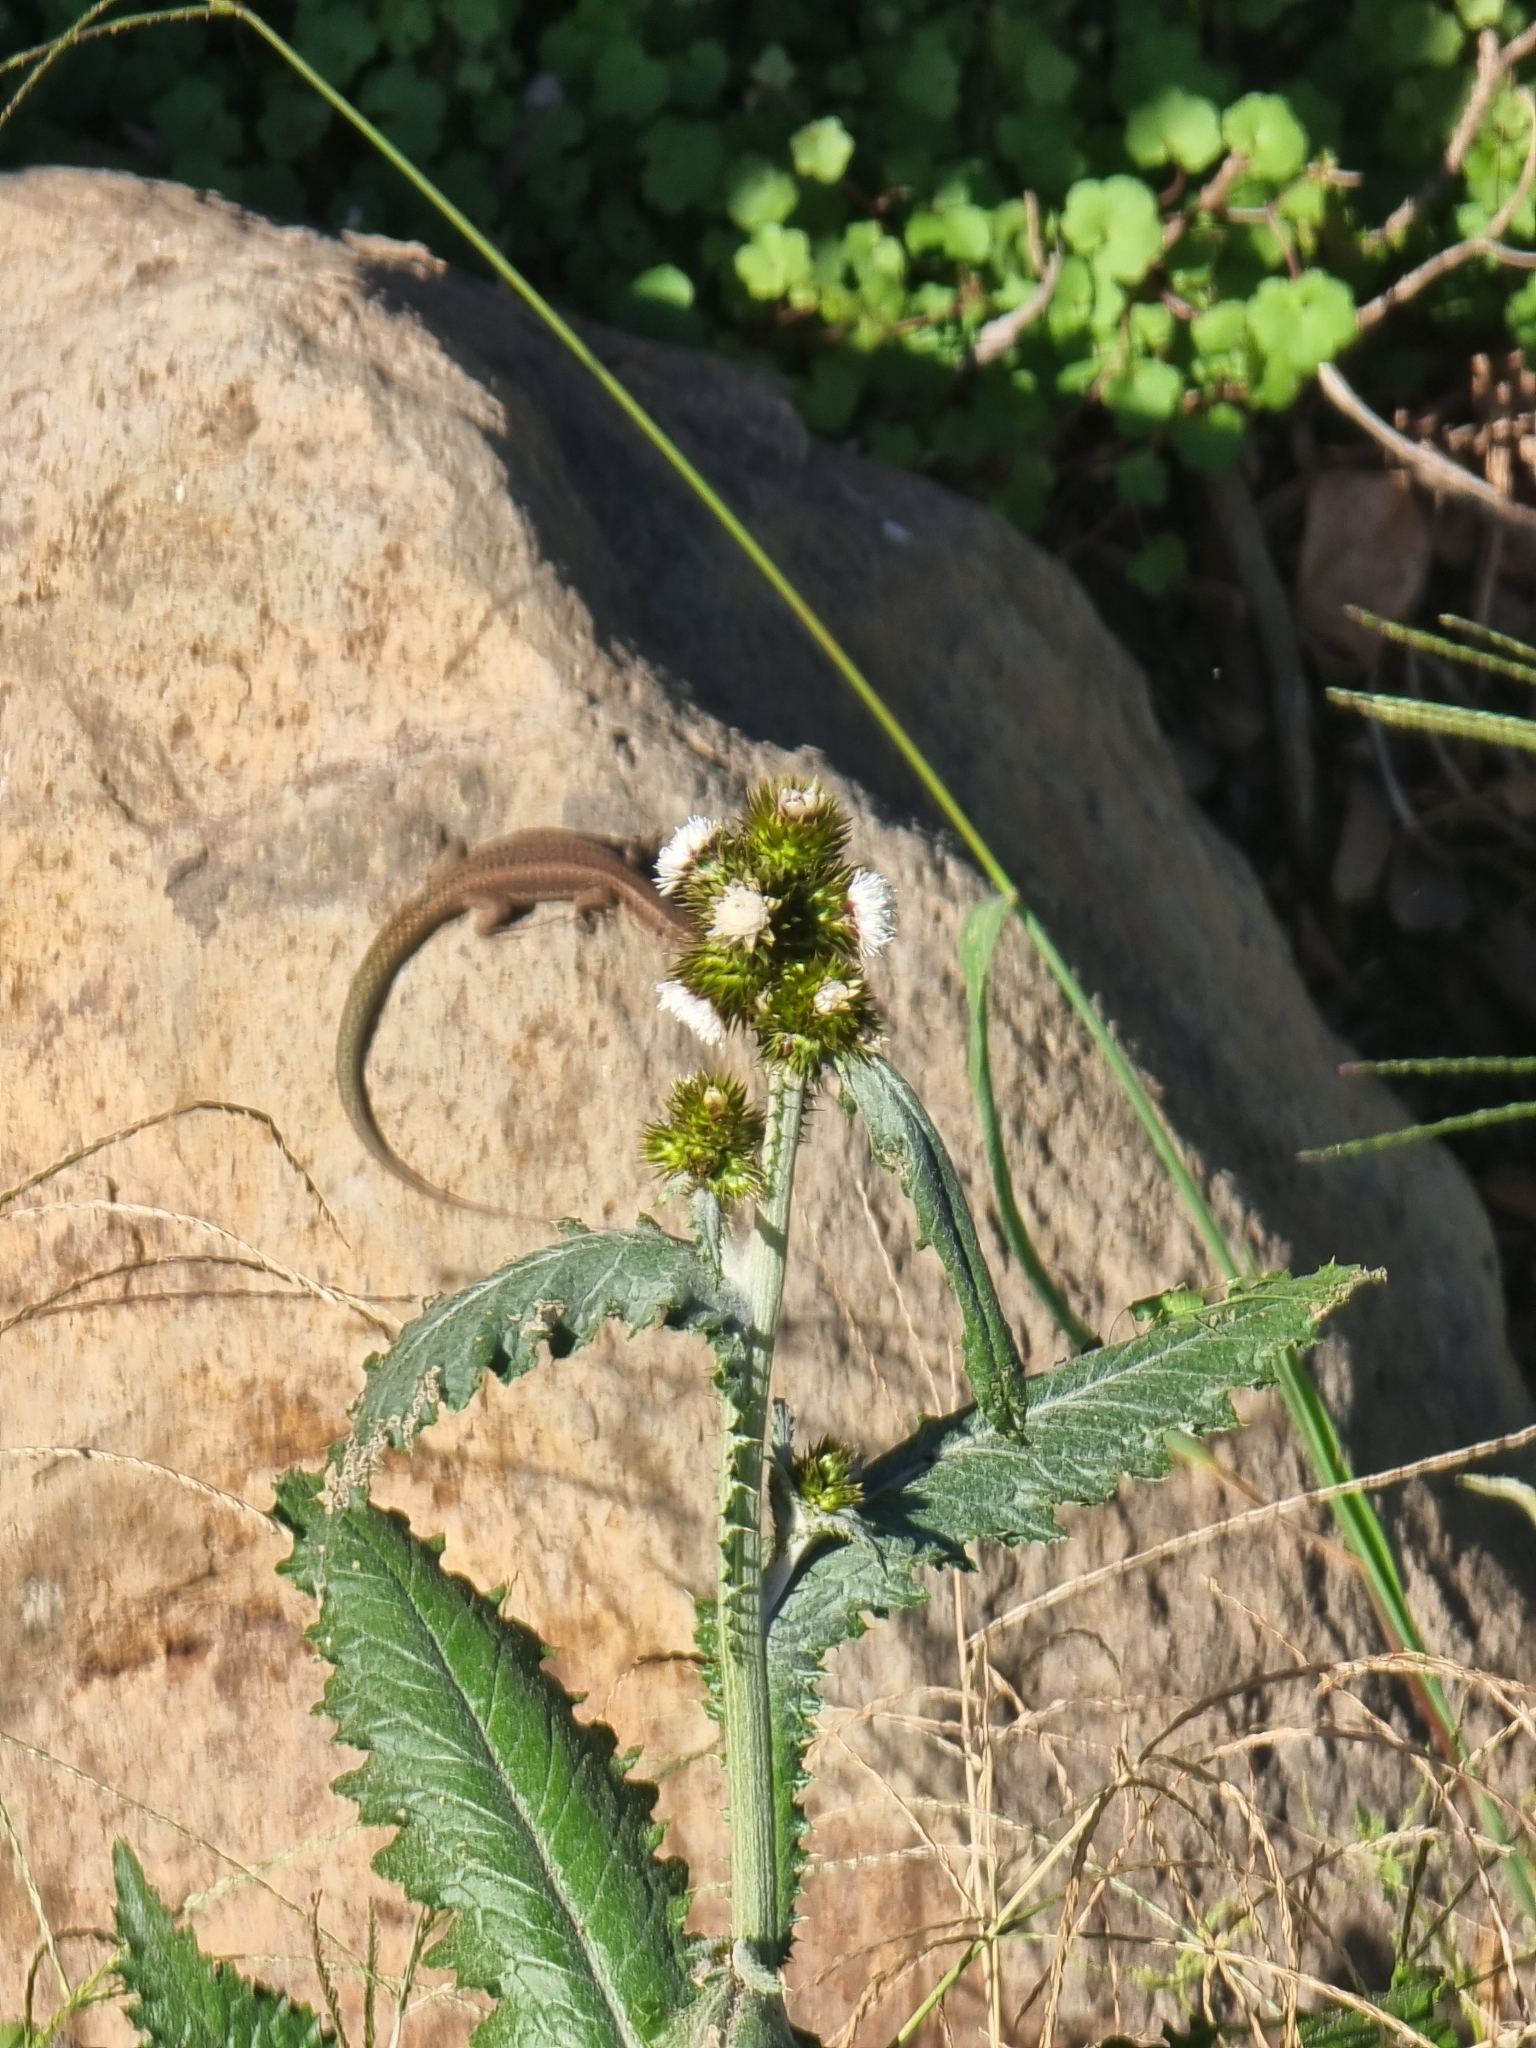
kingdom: Plantae
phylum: Tracheophyta
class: Magnoliopsida
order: Asterales
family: Asteraceae
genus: Carduus
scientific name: Carduus squarrosus
